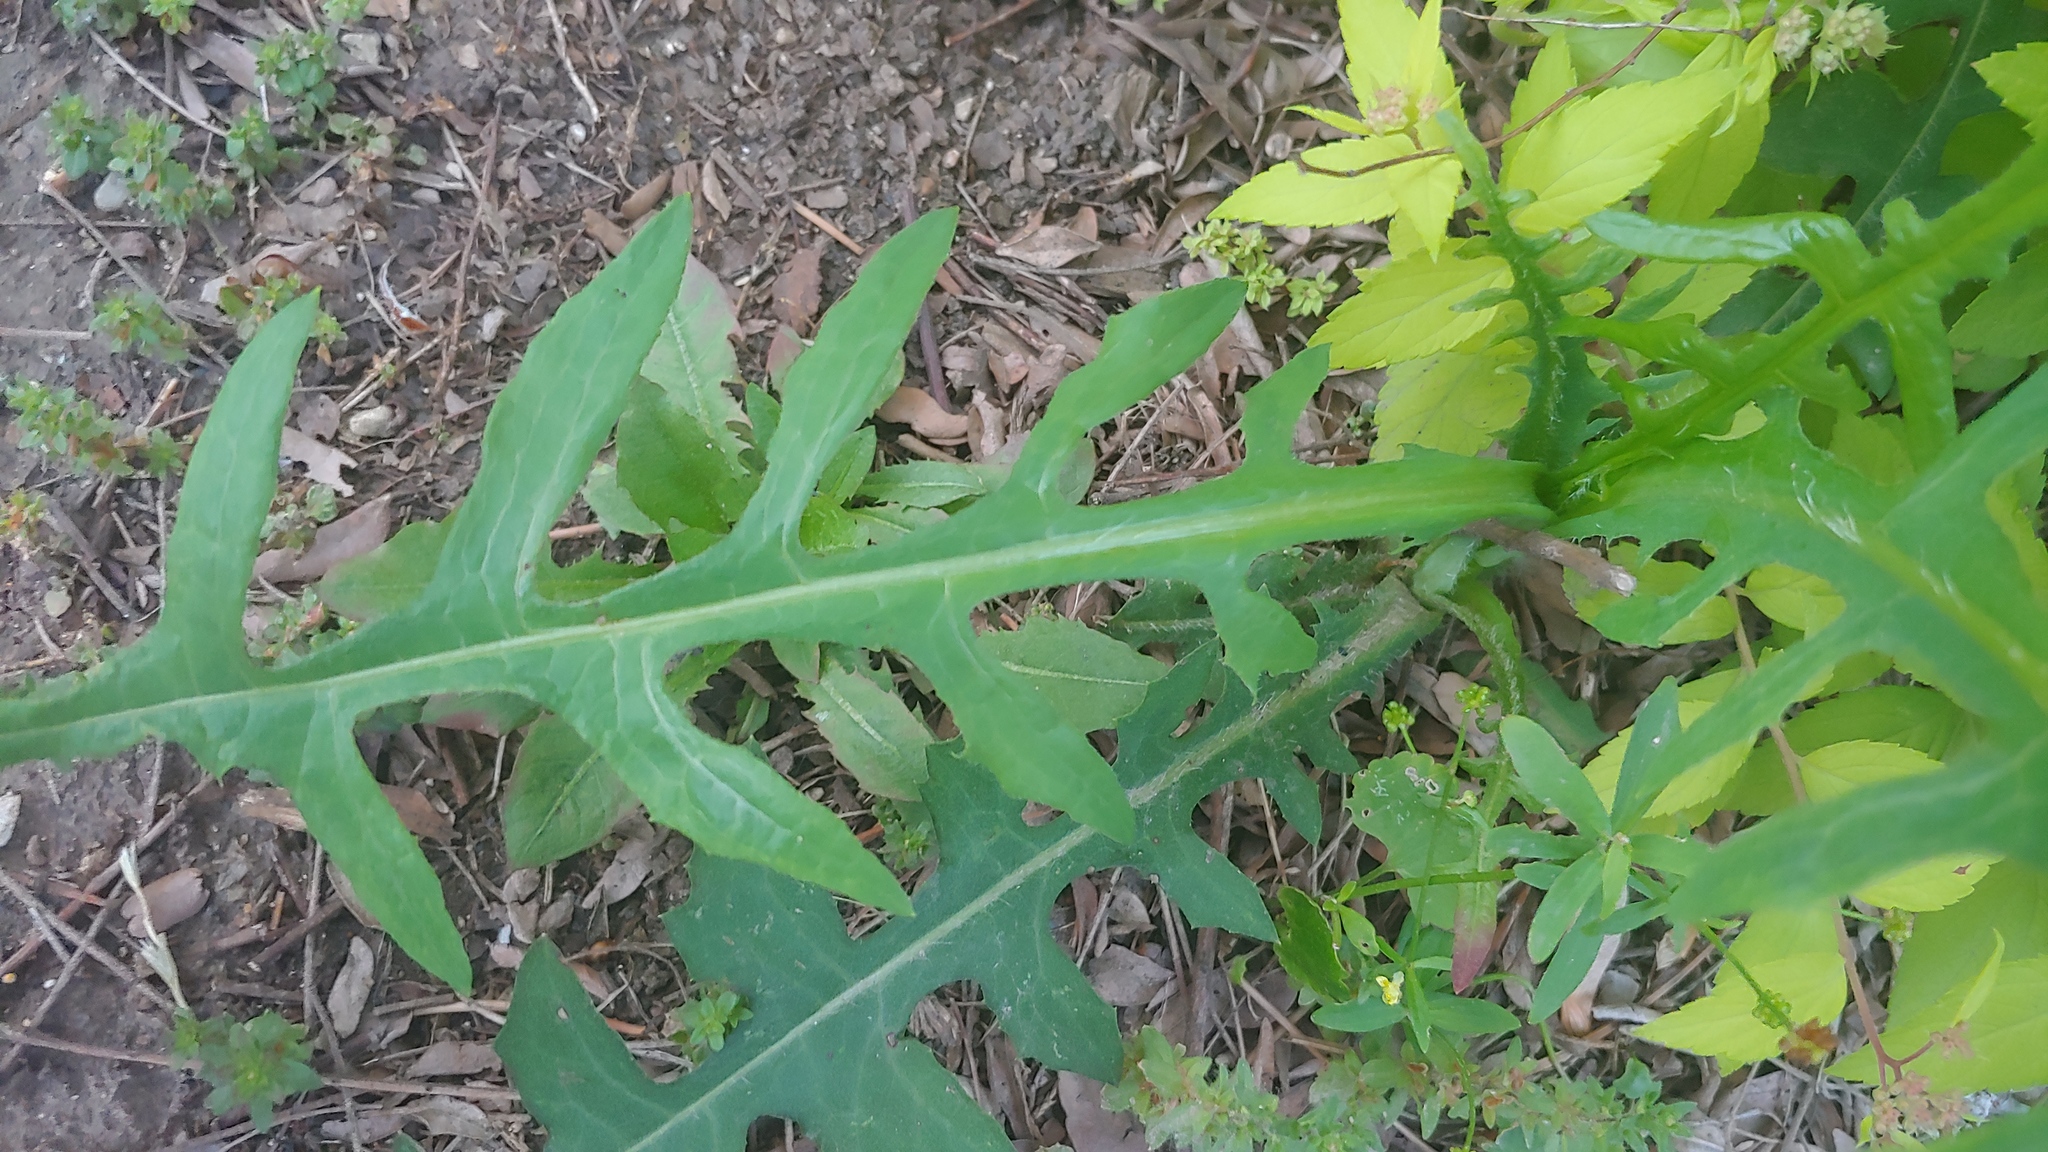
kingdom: Plantae
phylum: Tracheophyta
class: Magnoliopsida
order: Asterales
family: Asteraceae
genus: Lactuca
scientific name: Lactuca canadensis
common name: Canada lettuce
